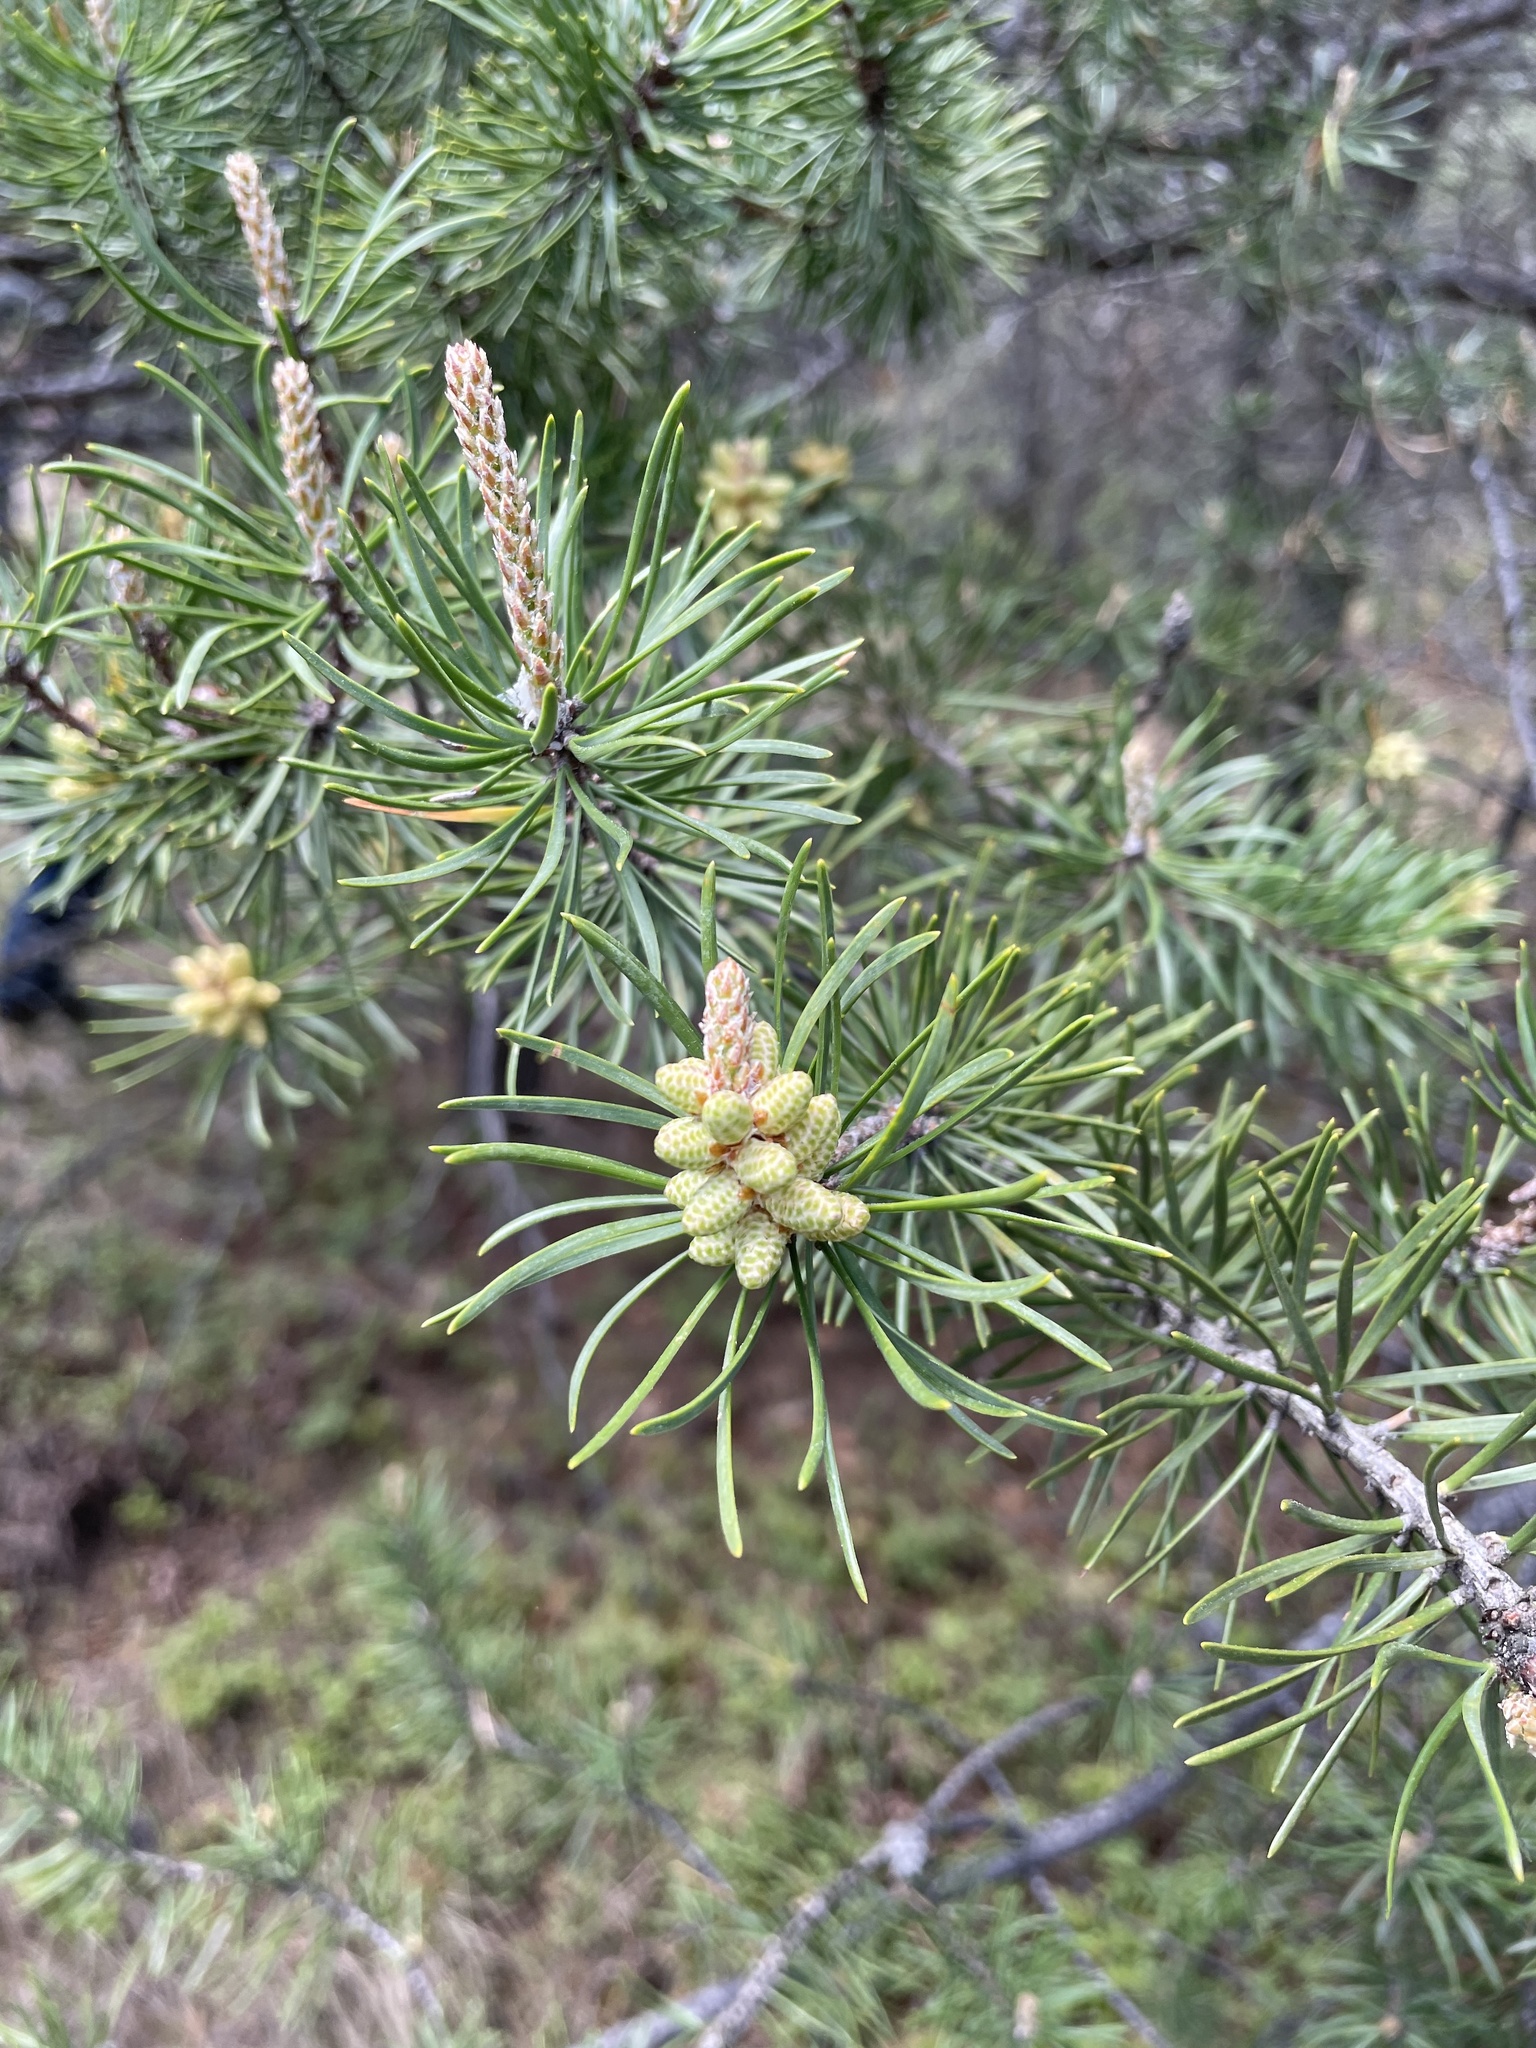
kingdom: Plantae
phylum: Tracheophyta
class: Pinopsida
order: Pinales
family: Pinaceae
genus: Pinus
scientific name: Pinus banksiana
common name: Jack pine
